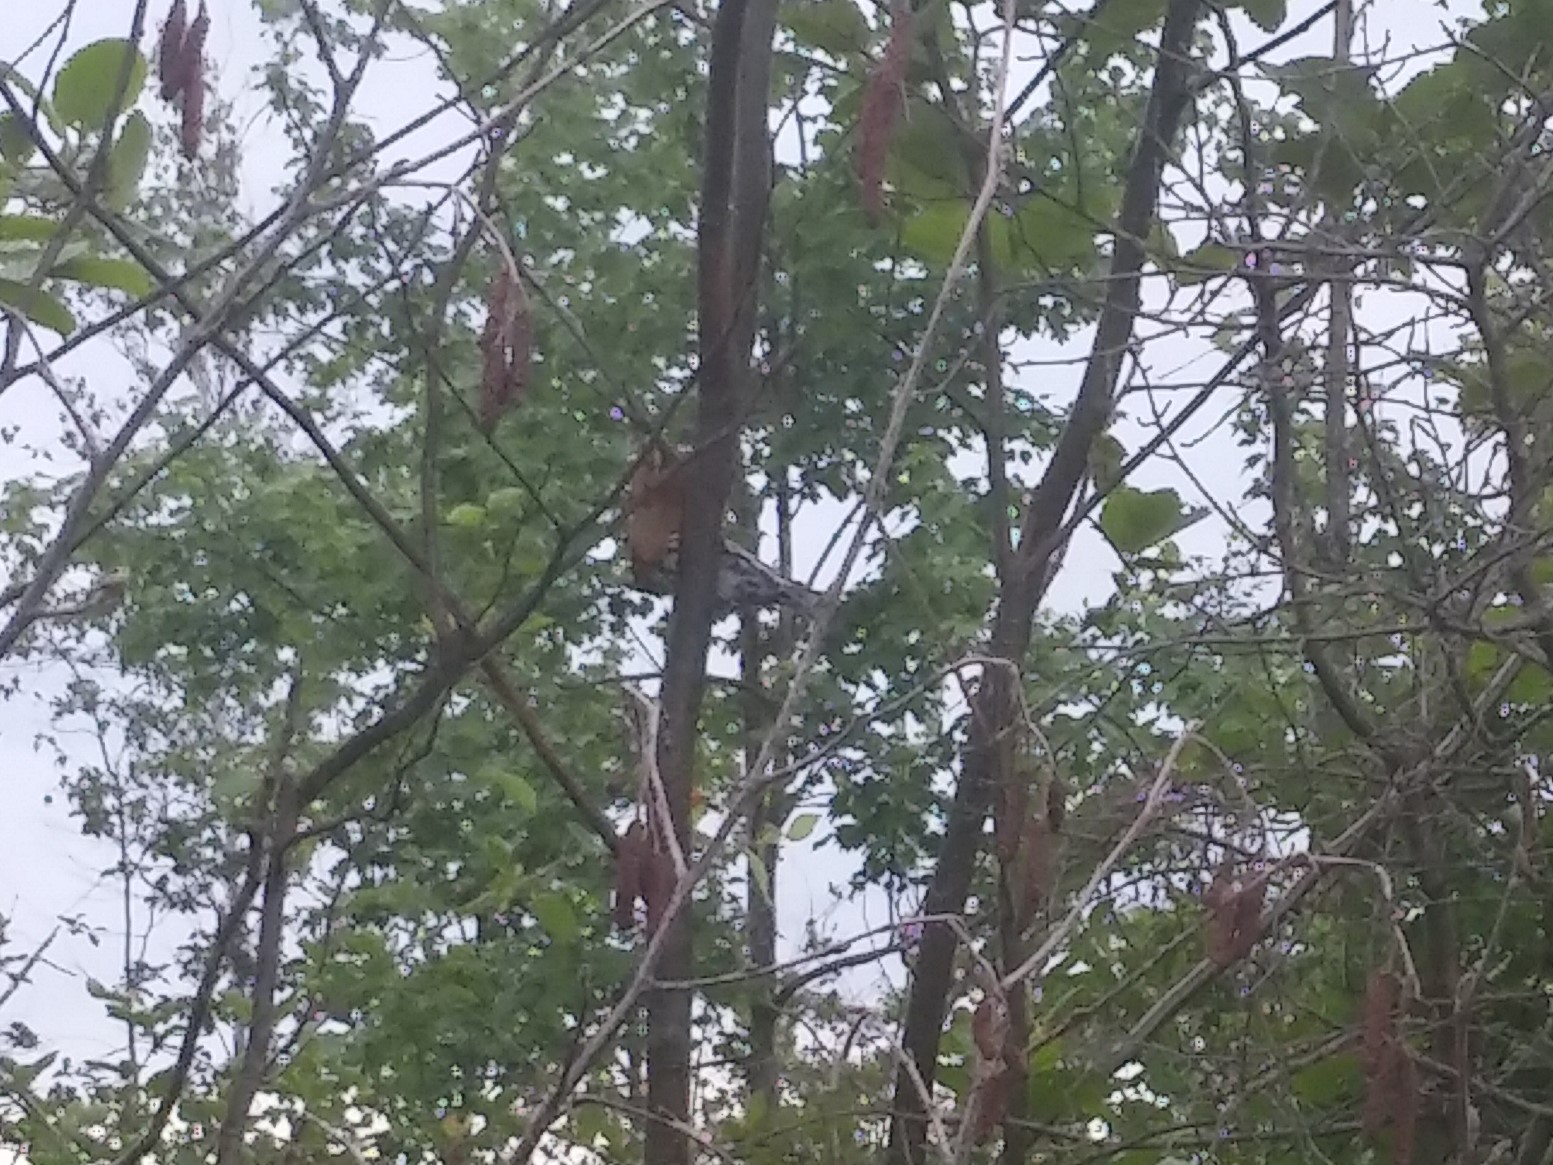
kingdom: Animalia
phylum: Chordata
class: Aves
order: Passeriformes
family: Parulidae
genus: Mniotilta
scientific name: Mniotilta varia
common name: Black-and-white warbler
